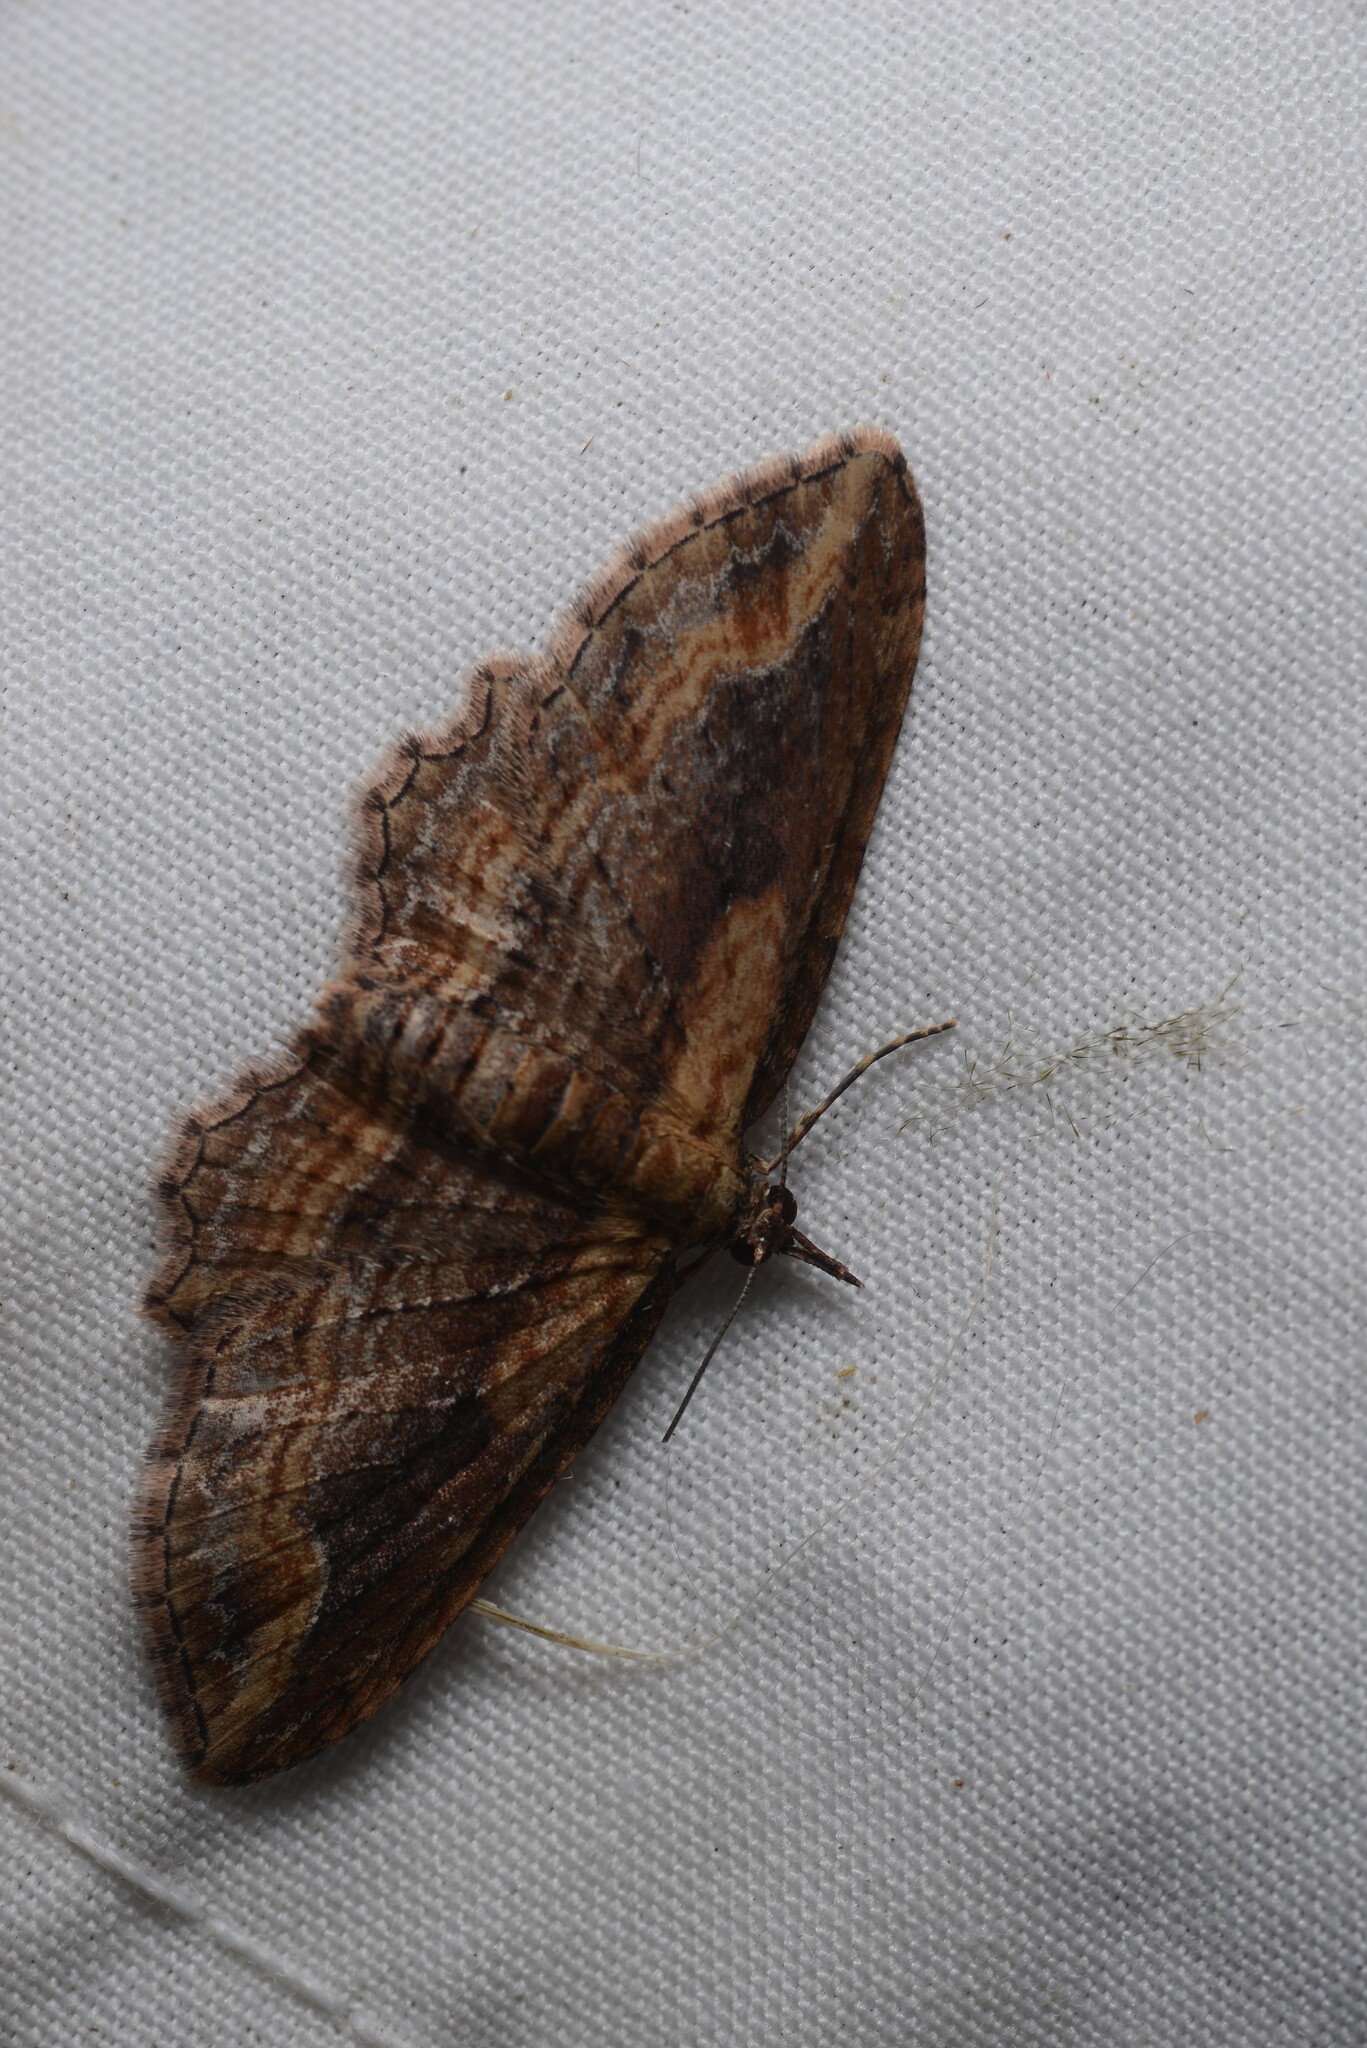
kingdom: Animalia
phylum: Arthropoda
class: Insecta
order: Lepidoptera
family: Geometridae
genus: Chloroclystis
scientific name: Chloroclystis filata
